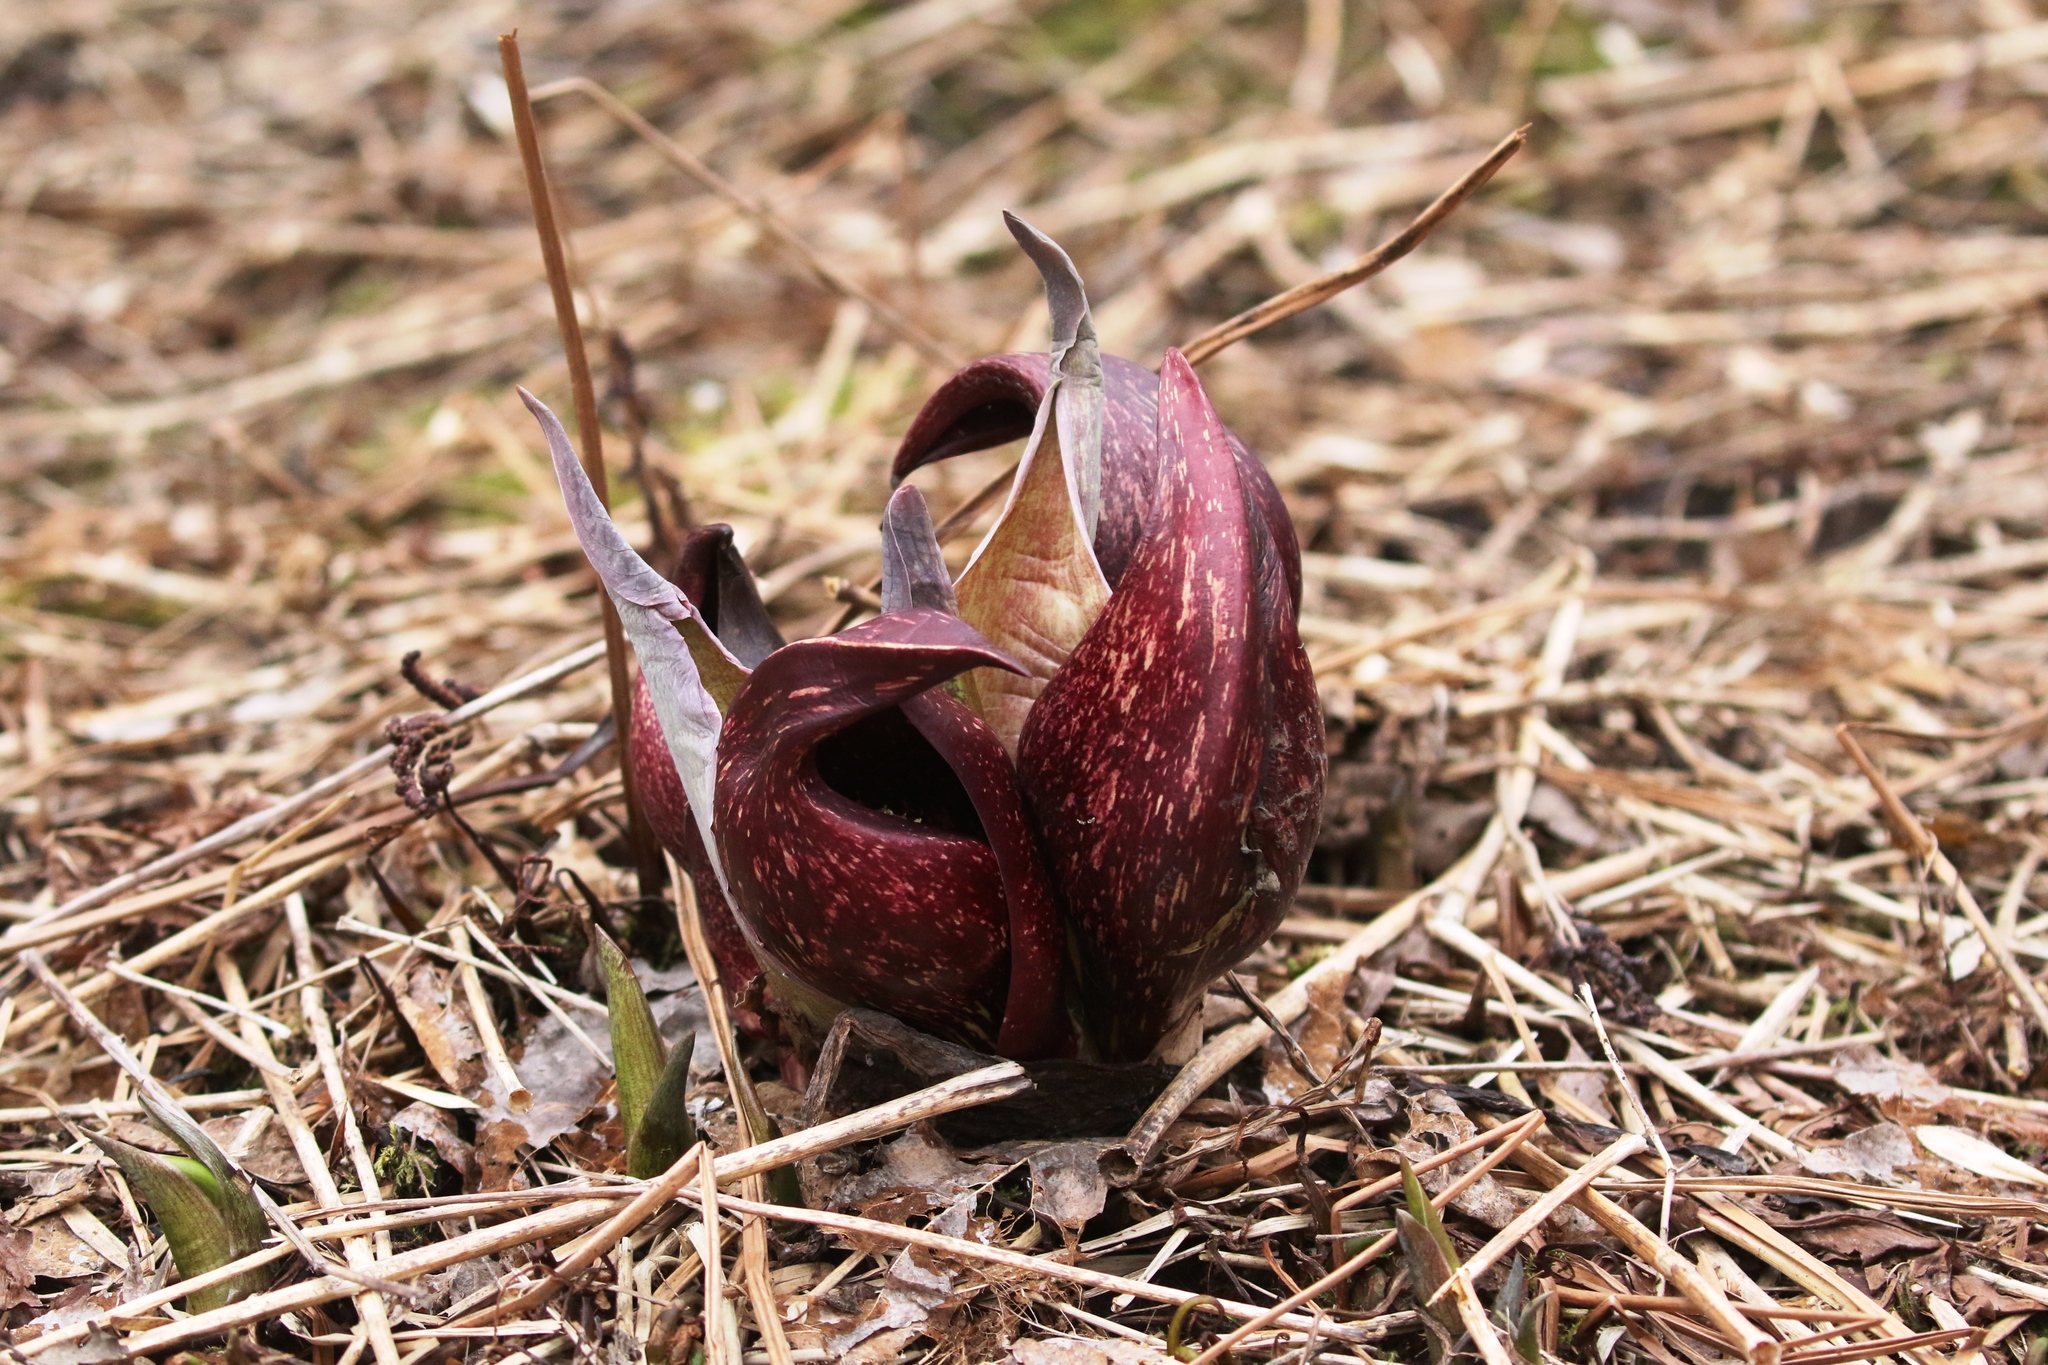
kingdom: Plantae
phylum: Tracheophyta
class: Liliopsida
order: Alismatales
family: Araceae
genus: Symplocarpus
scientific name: Symplocarpus foetidus
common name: Eastern skunk cabbage
